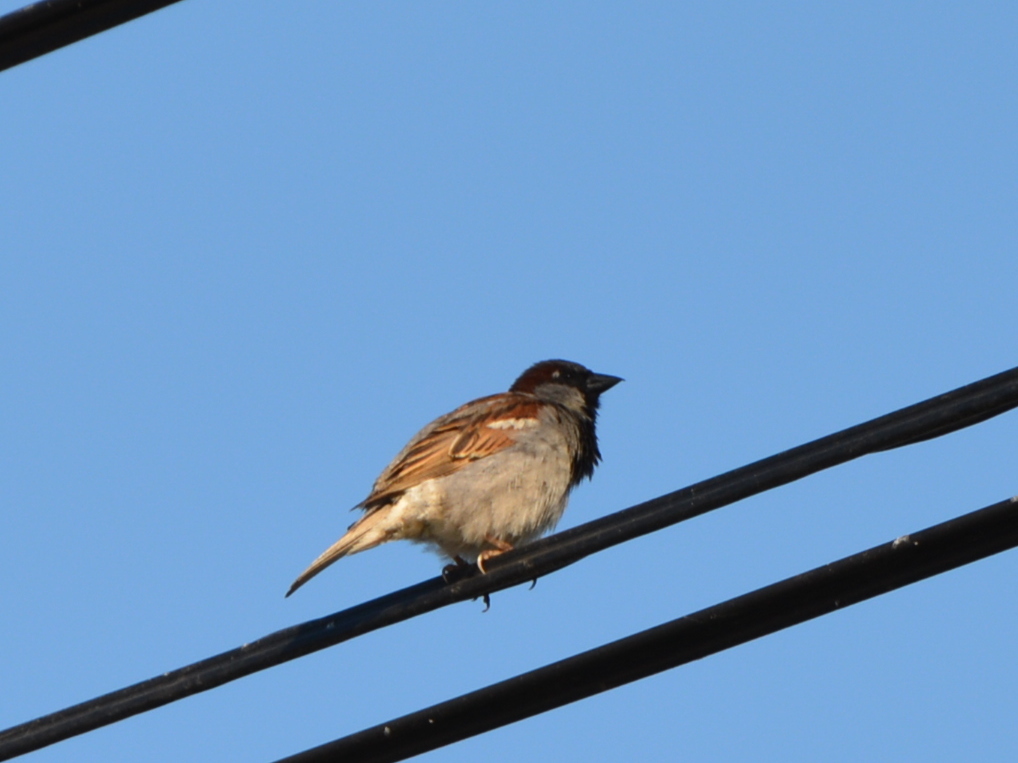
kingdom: Animalia
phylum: Chordata
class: Aves
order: Passeriformes
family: Passeridae
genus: Passer
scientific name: Passer domesticus
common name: House sparrow
